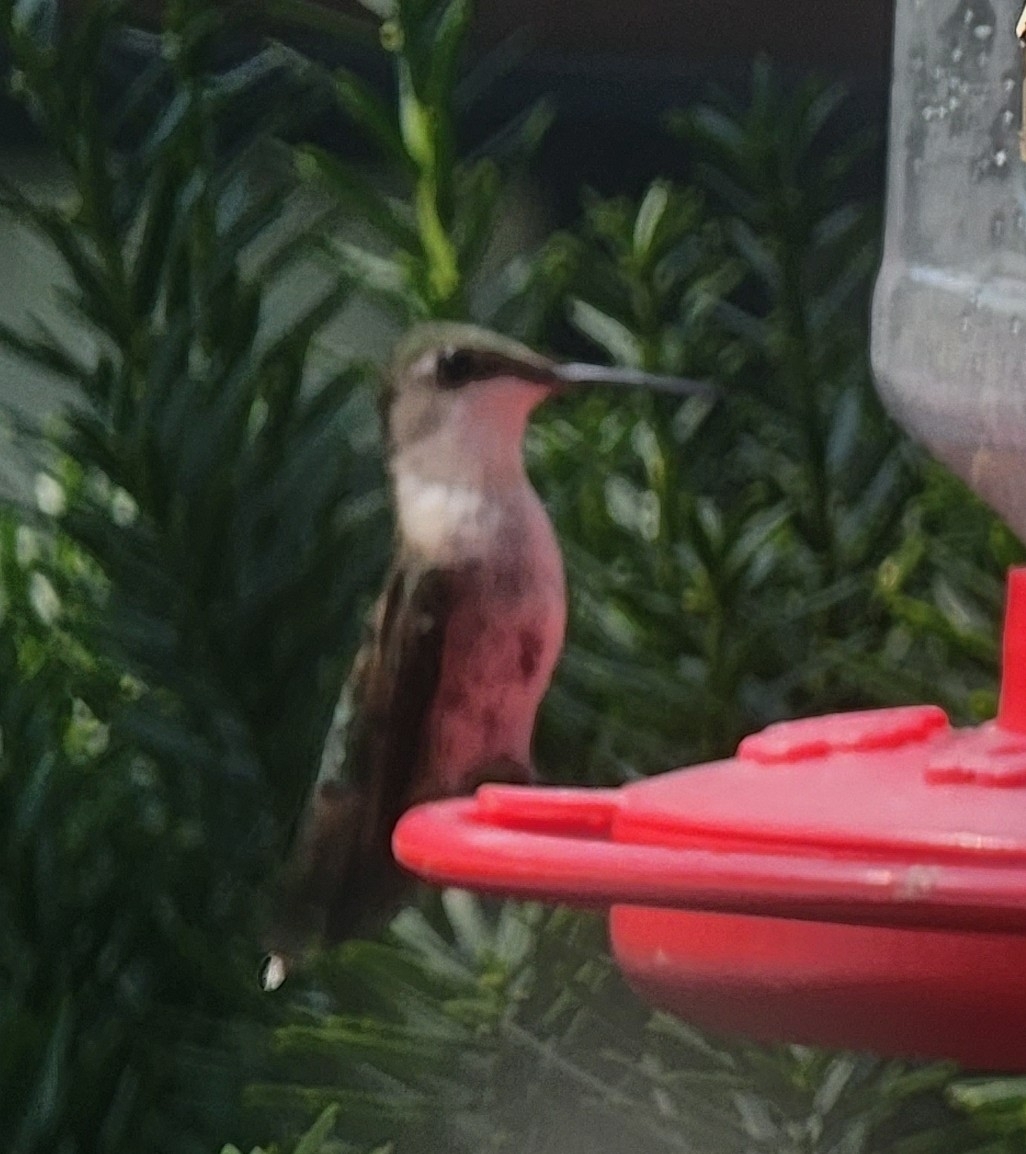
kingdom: Animalia
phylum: Chordata
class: Aves
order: Apodiformes
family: Trochilidae
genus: Archilochus
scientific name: Archilochus colubris
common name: Ruby-throated hummingbird
